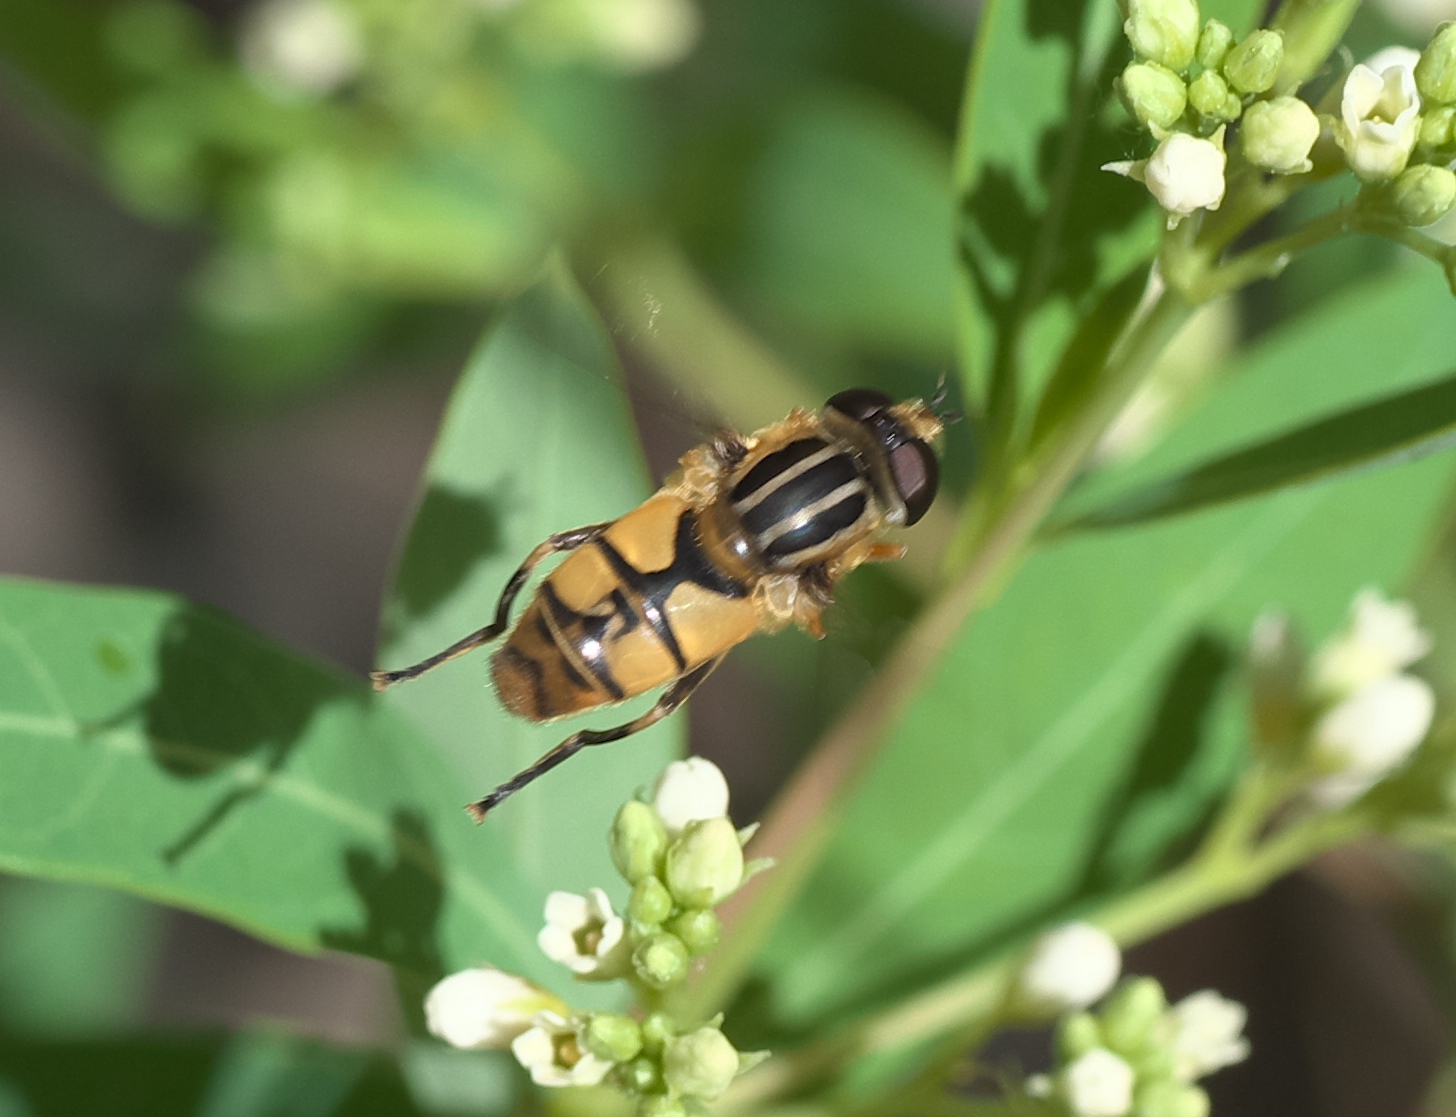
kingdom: Animalia
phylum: Arthropoda
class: Insecta
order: Diptera
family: Syrphidae
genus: Helophilus
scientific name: Helophilus latifrons
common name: Broad-headed marsh fly
